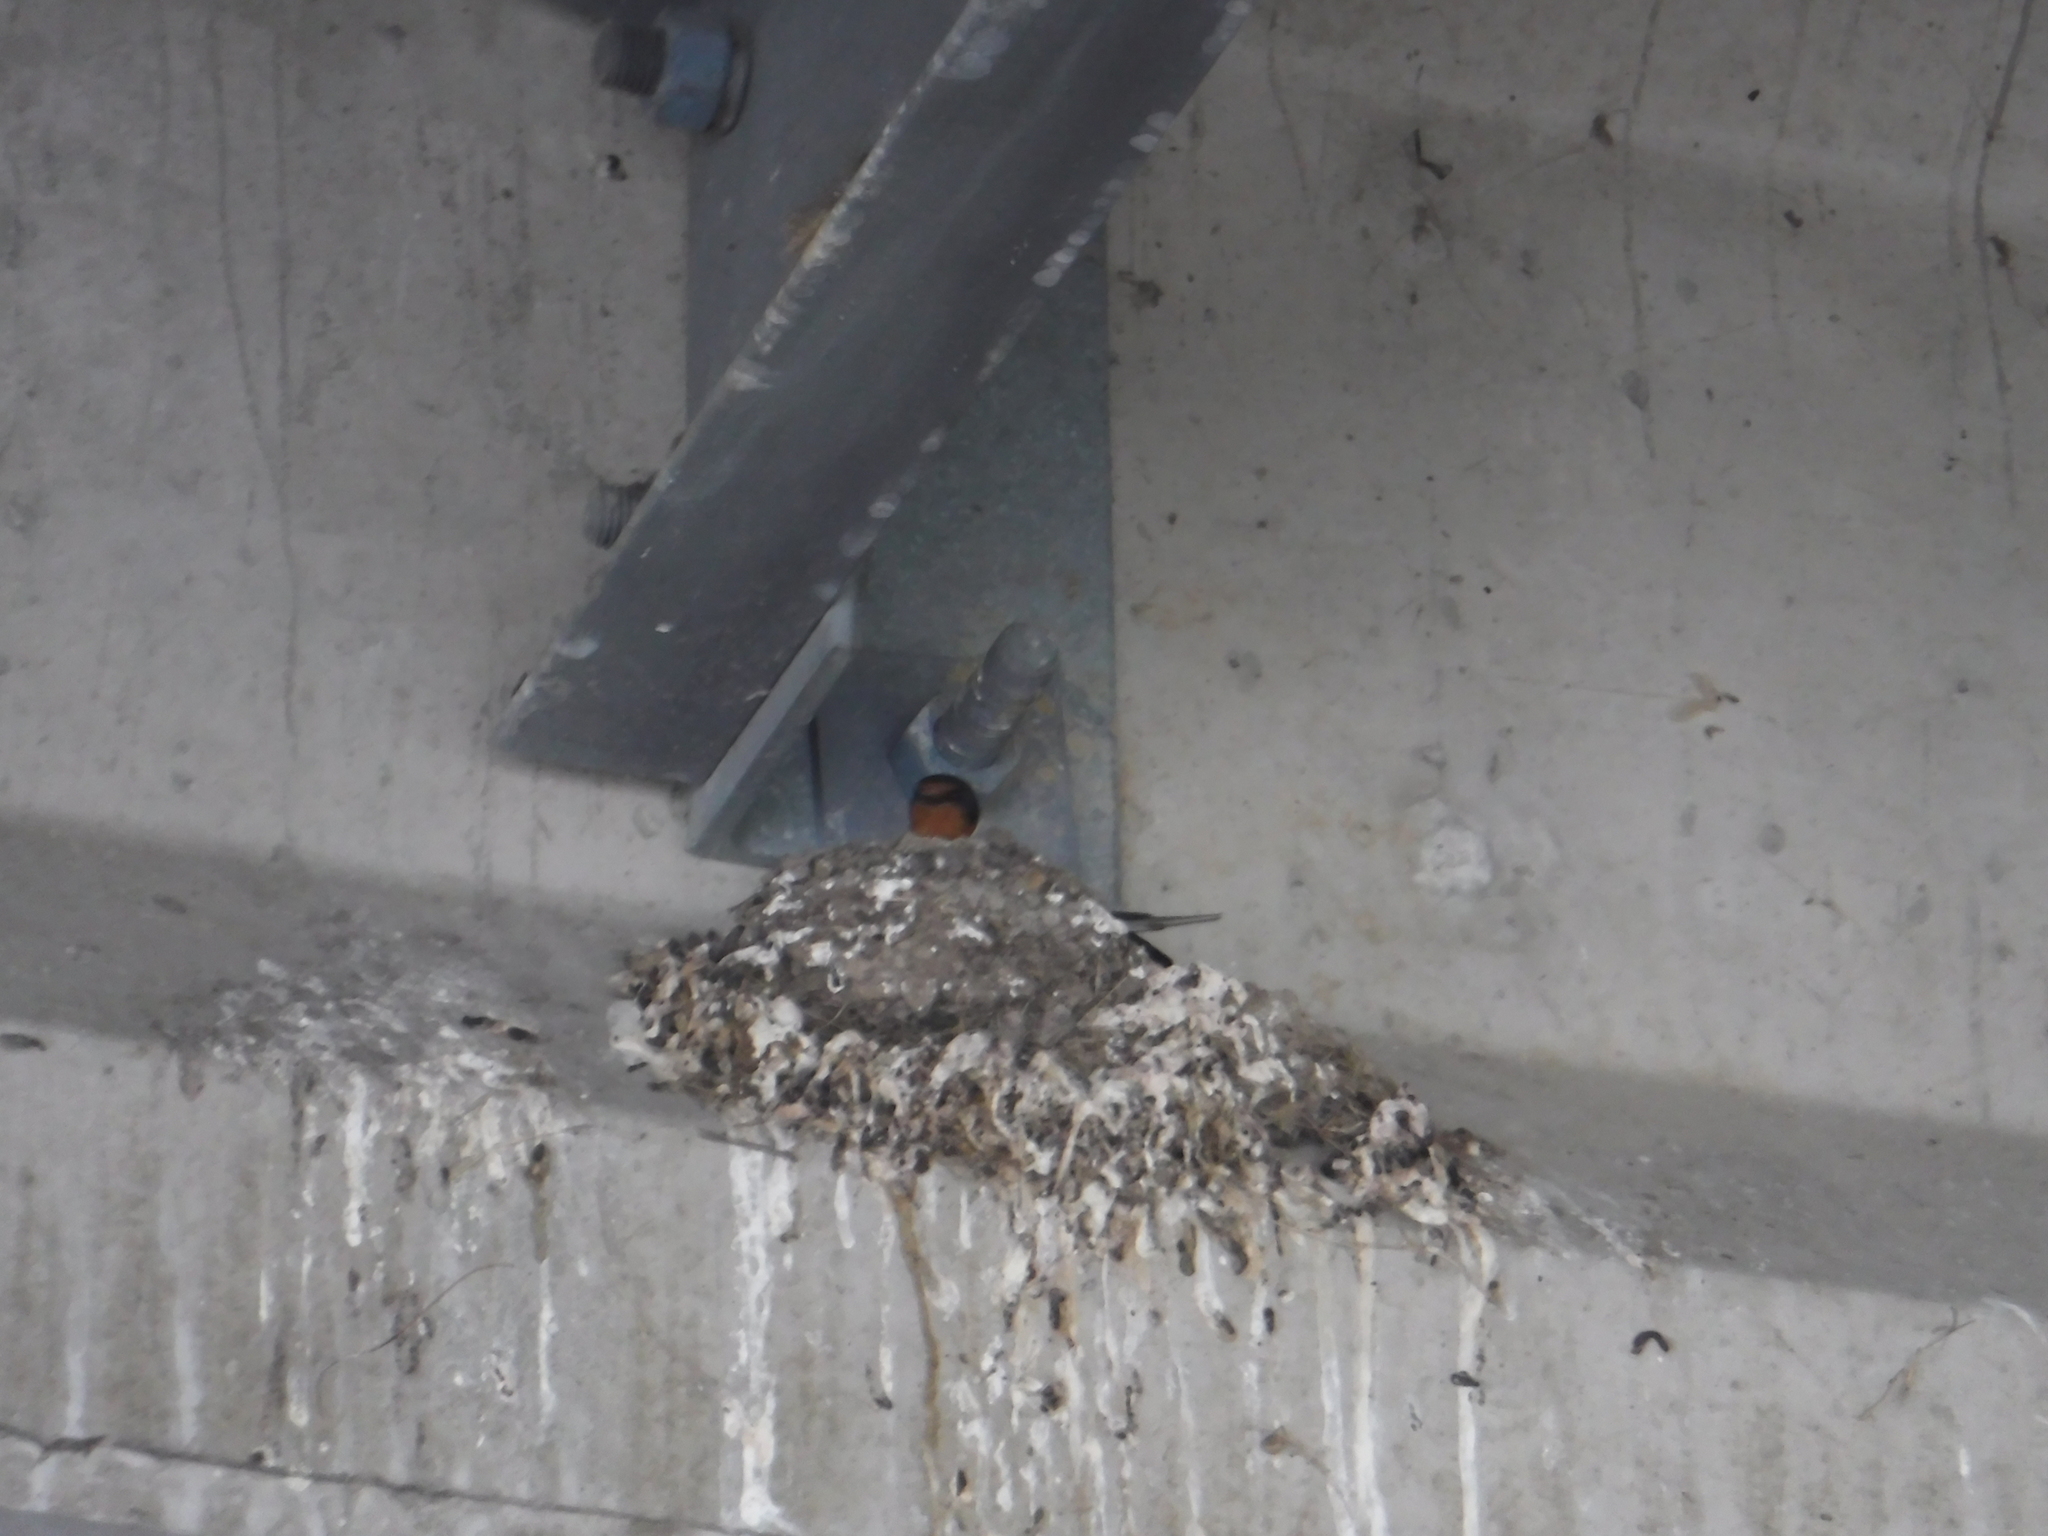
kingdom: Animalia
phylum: Chordata
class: Aves
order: Passeriformes
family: Hirundinidae
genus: Hirundo
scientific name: Hirundo rustica
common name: Barn swallow
